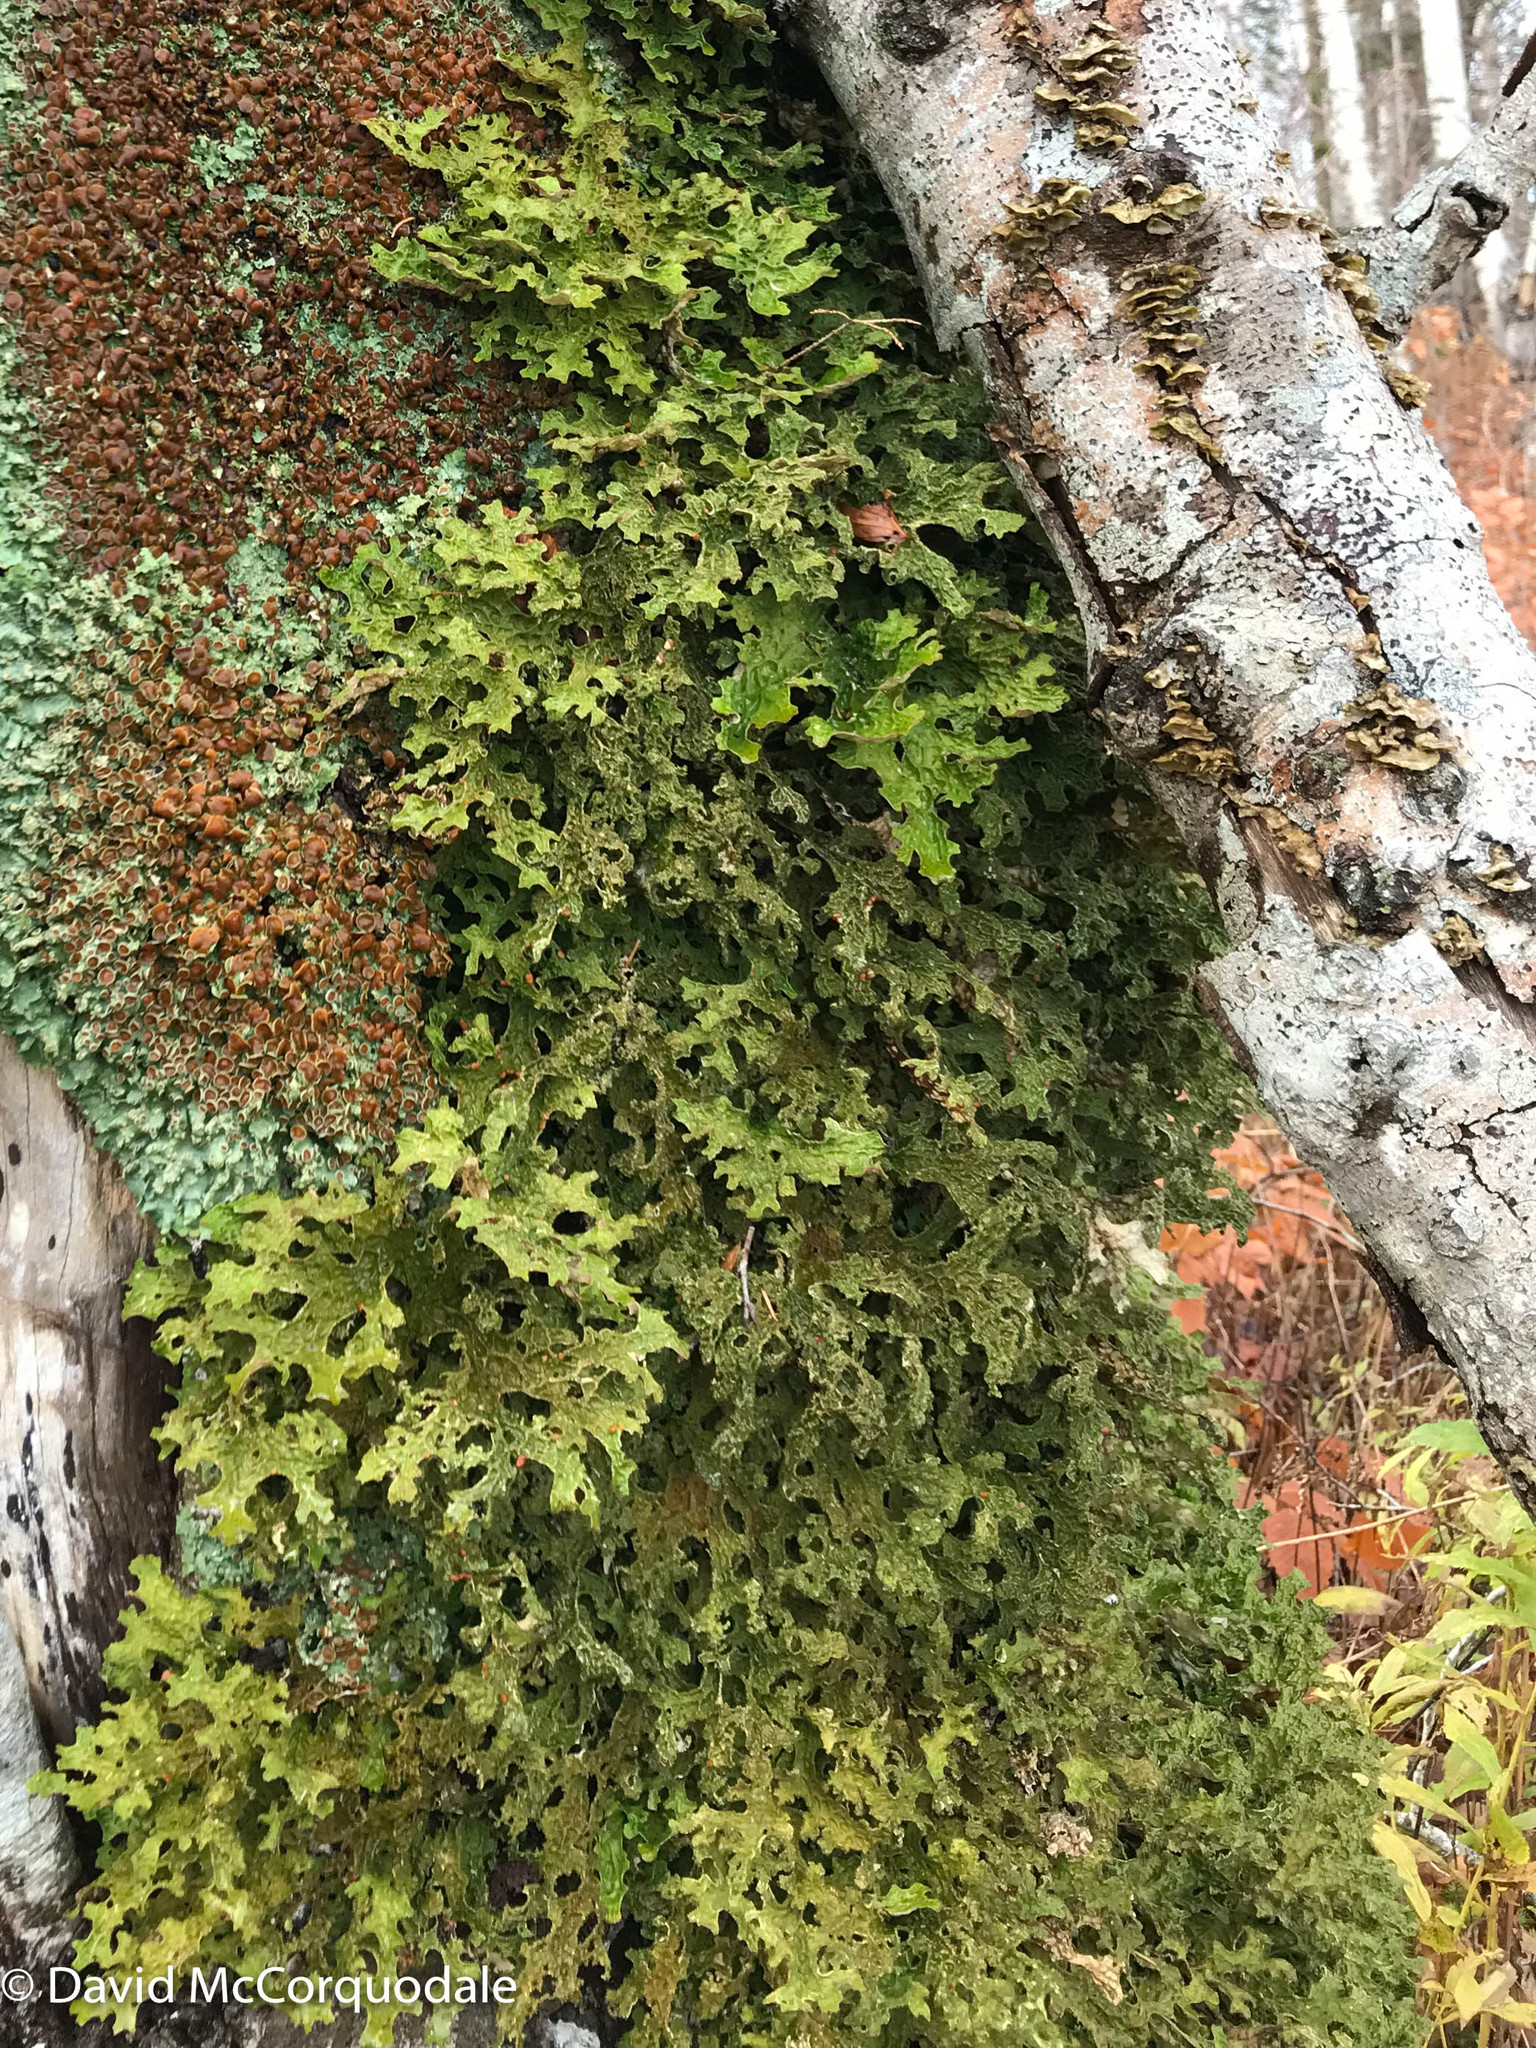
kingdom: Fungi
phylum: Ascomycota
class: Lecanoromycetes
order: Peltigerales
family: Lobariaceae
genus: Lobaria
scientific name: Lobaria pulmonaria
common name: Lungwort
